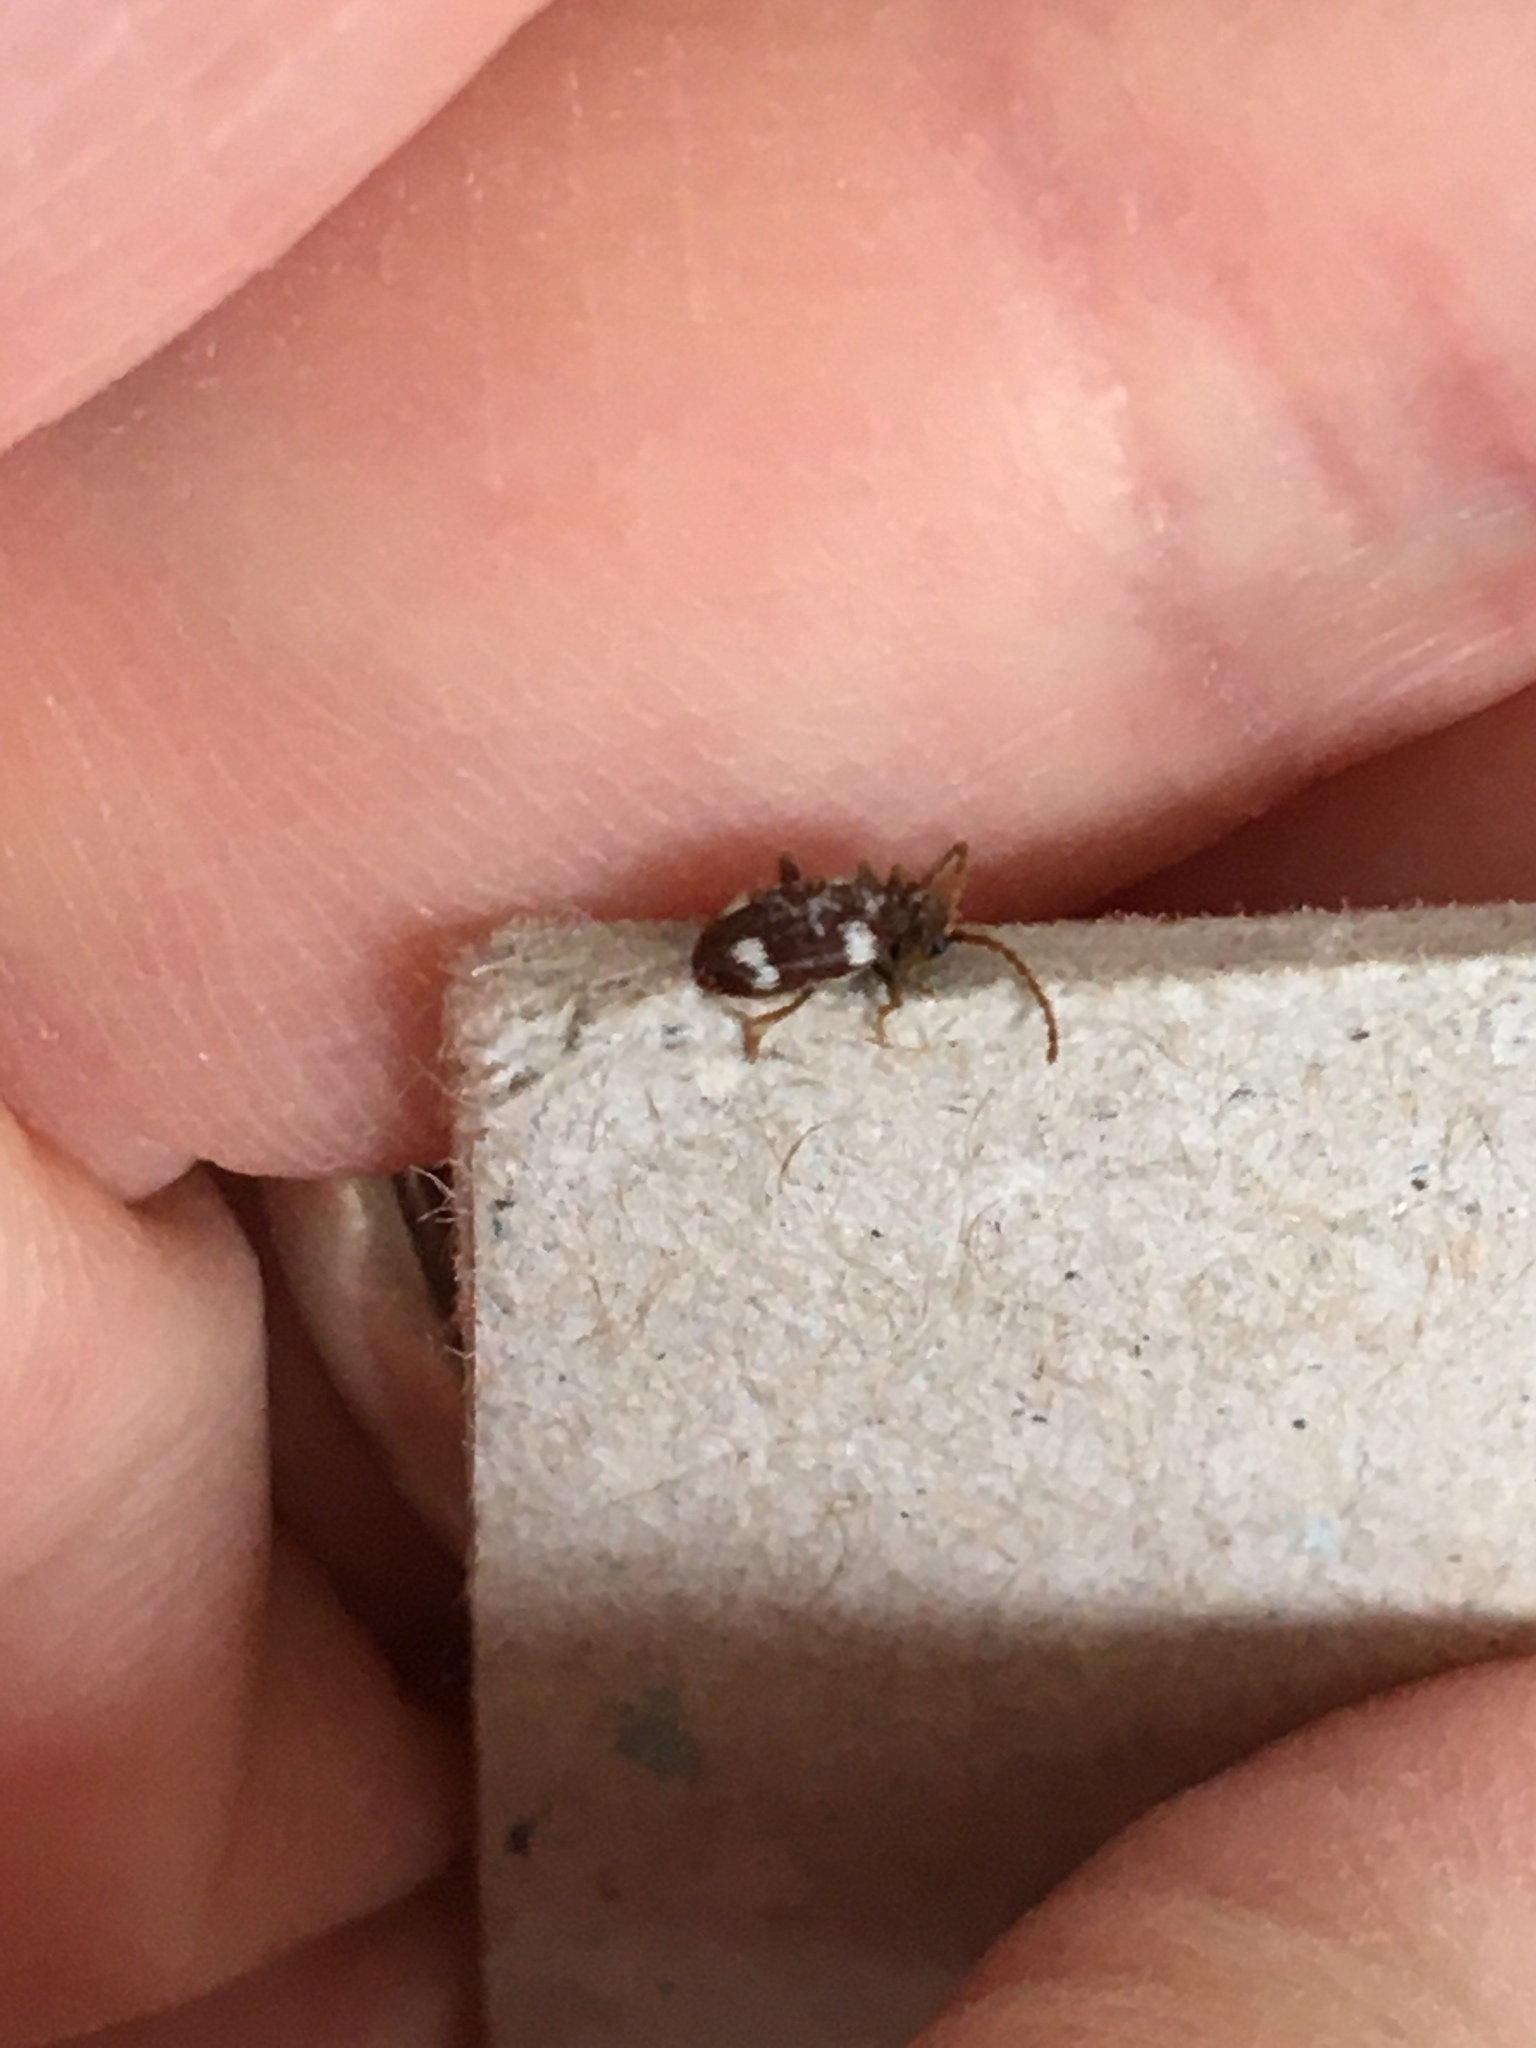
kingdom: Animalia
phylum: Arthropoda
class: Insecta
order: Coleoptera
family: Ptinidae
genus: Ptinus
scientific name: Ptinus sexpunctatus
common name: Six-spotted spider beetle
